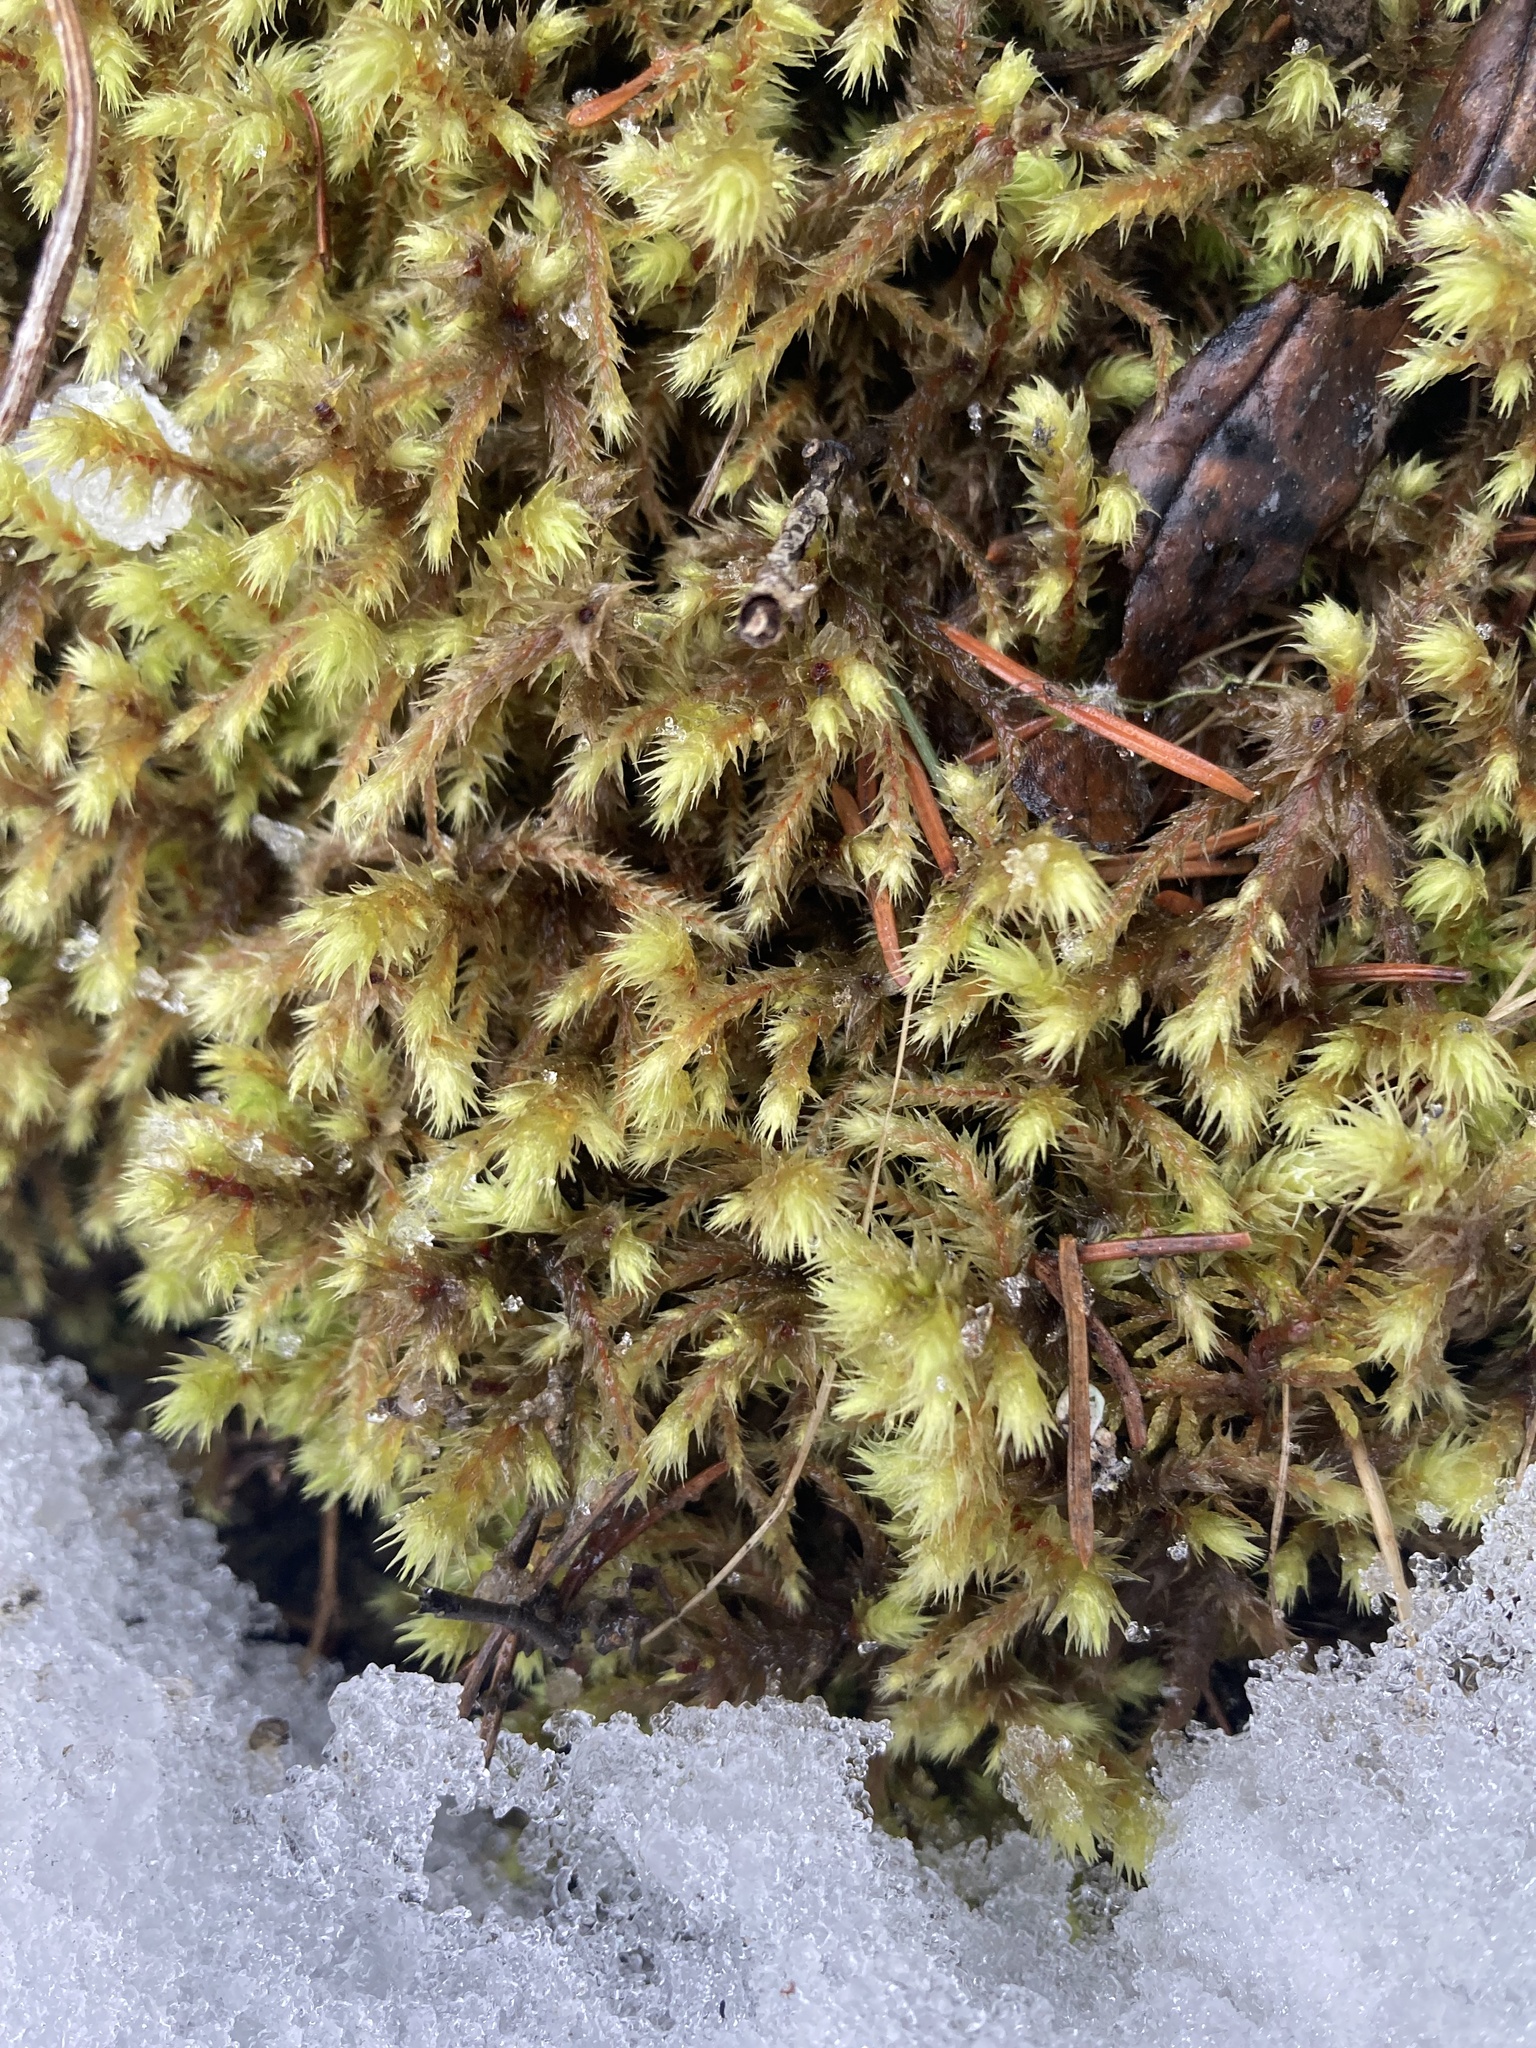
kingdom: Plantae
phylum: Bryophyta
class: Bryopsida
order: Hypnales
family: Hylocomiaceae
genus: Hylocomiadelphus
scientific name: Hylocomiadelphus triquetrus
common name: Rough goose neck moss
